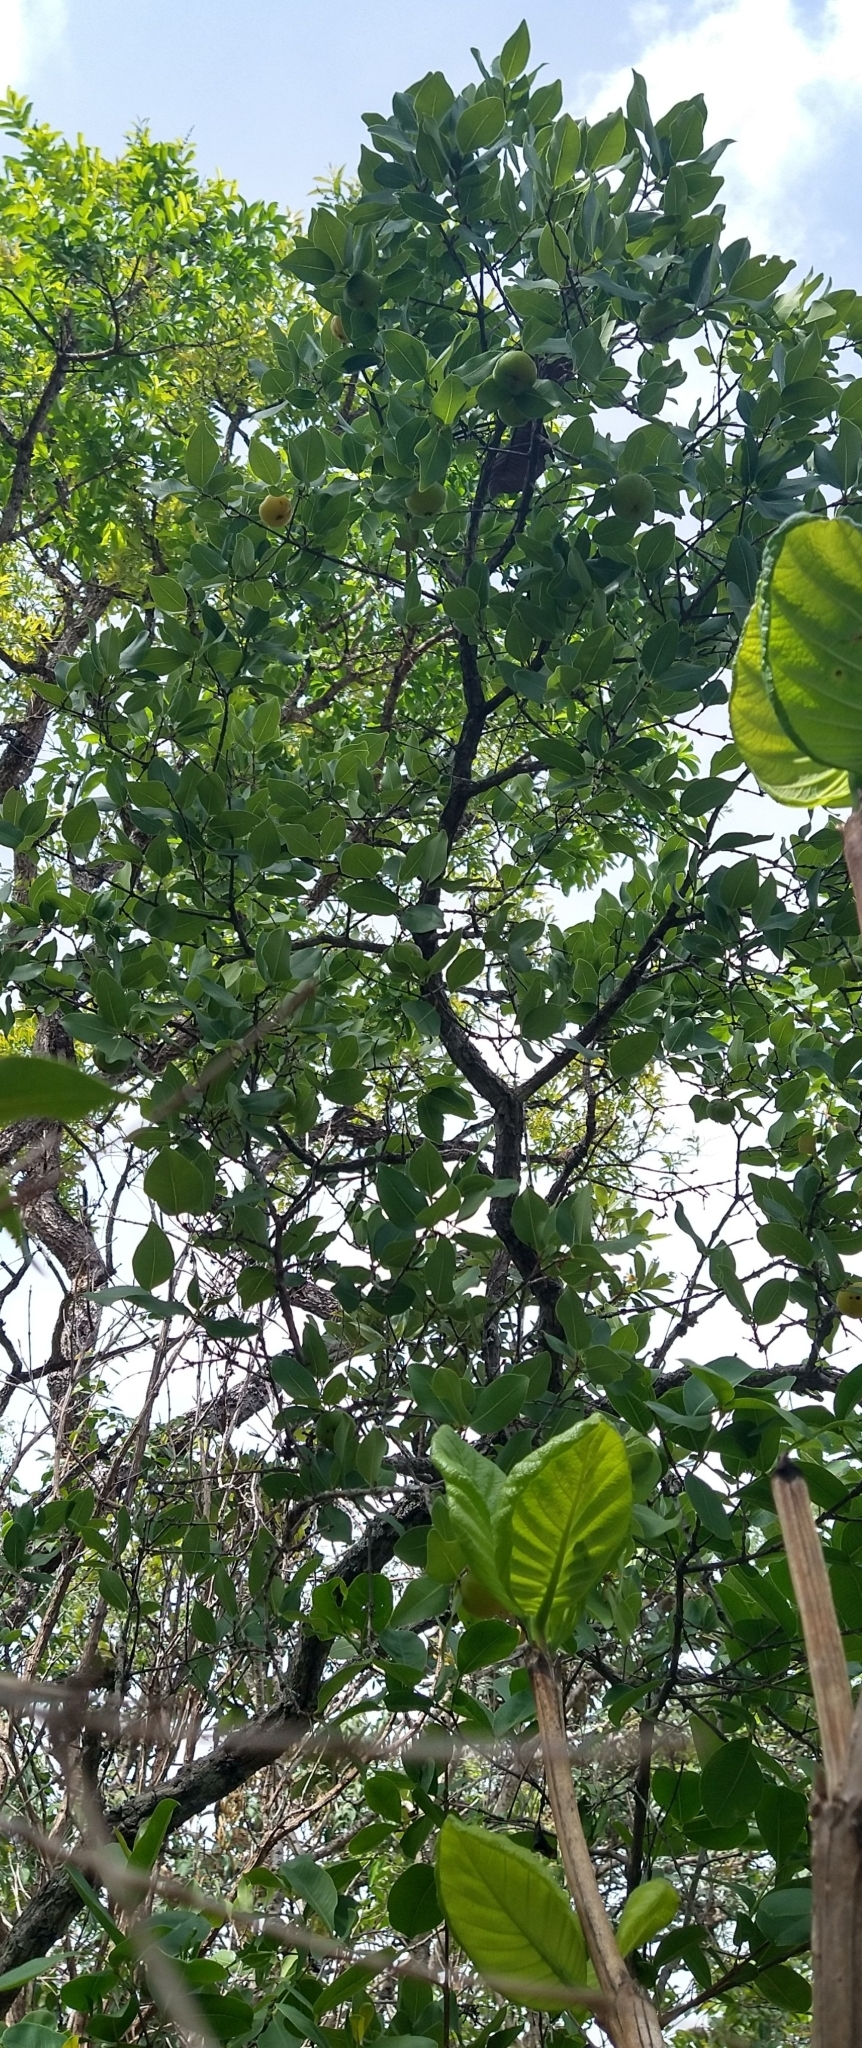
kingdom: Plantae
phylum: Tracheophyta
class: Magnoliopsida
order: Myrtales
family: Myrtaceae
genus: Eugenia
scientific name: Eugenia dysenterica
